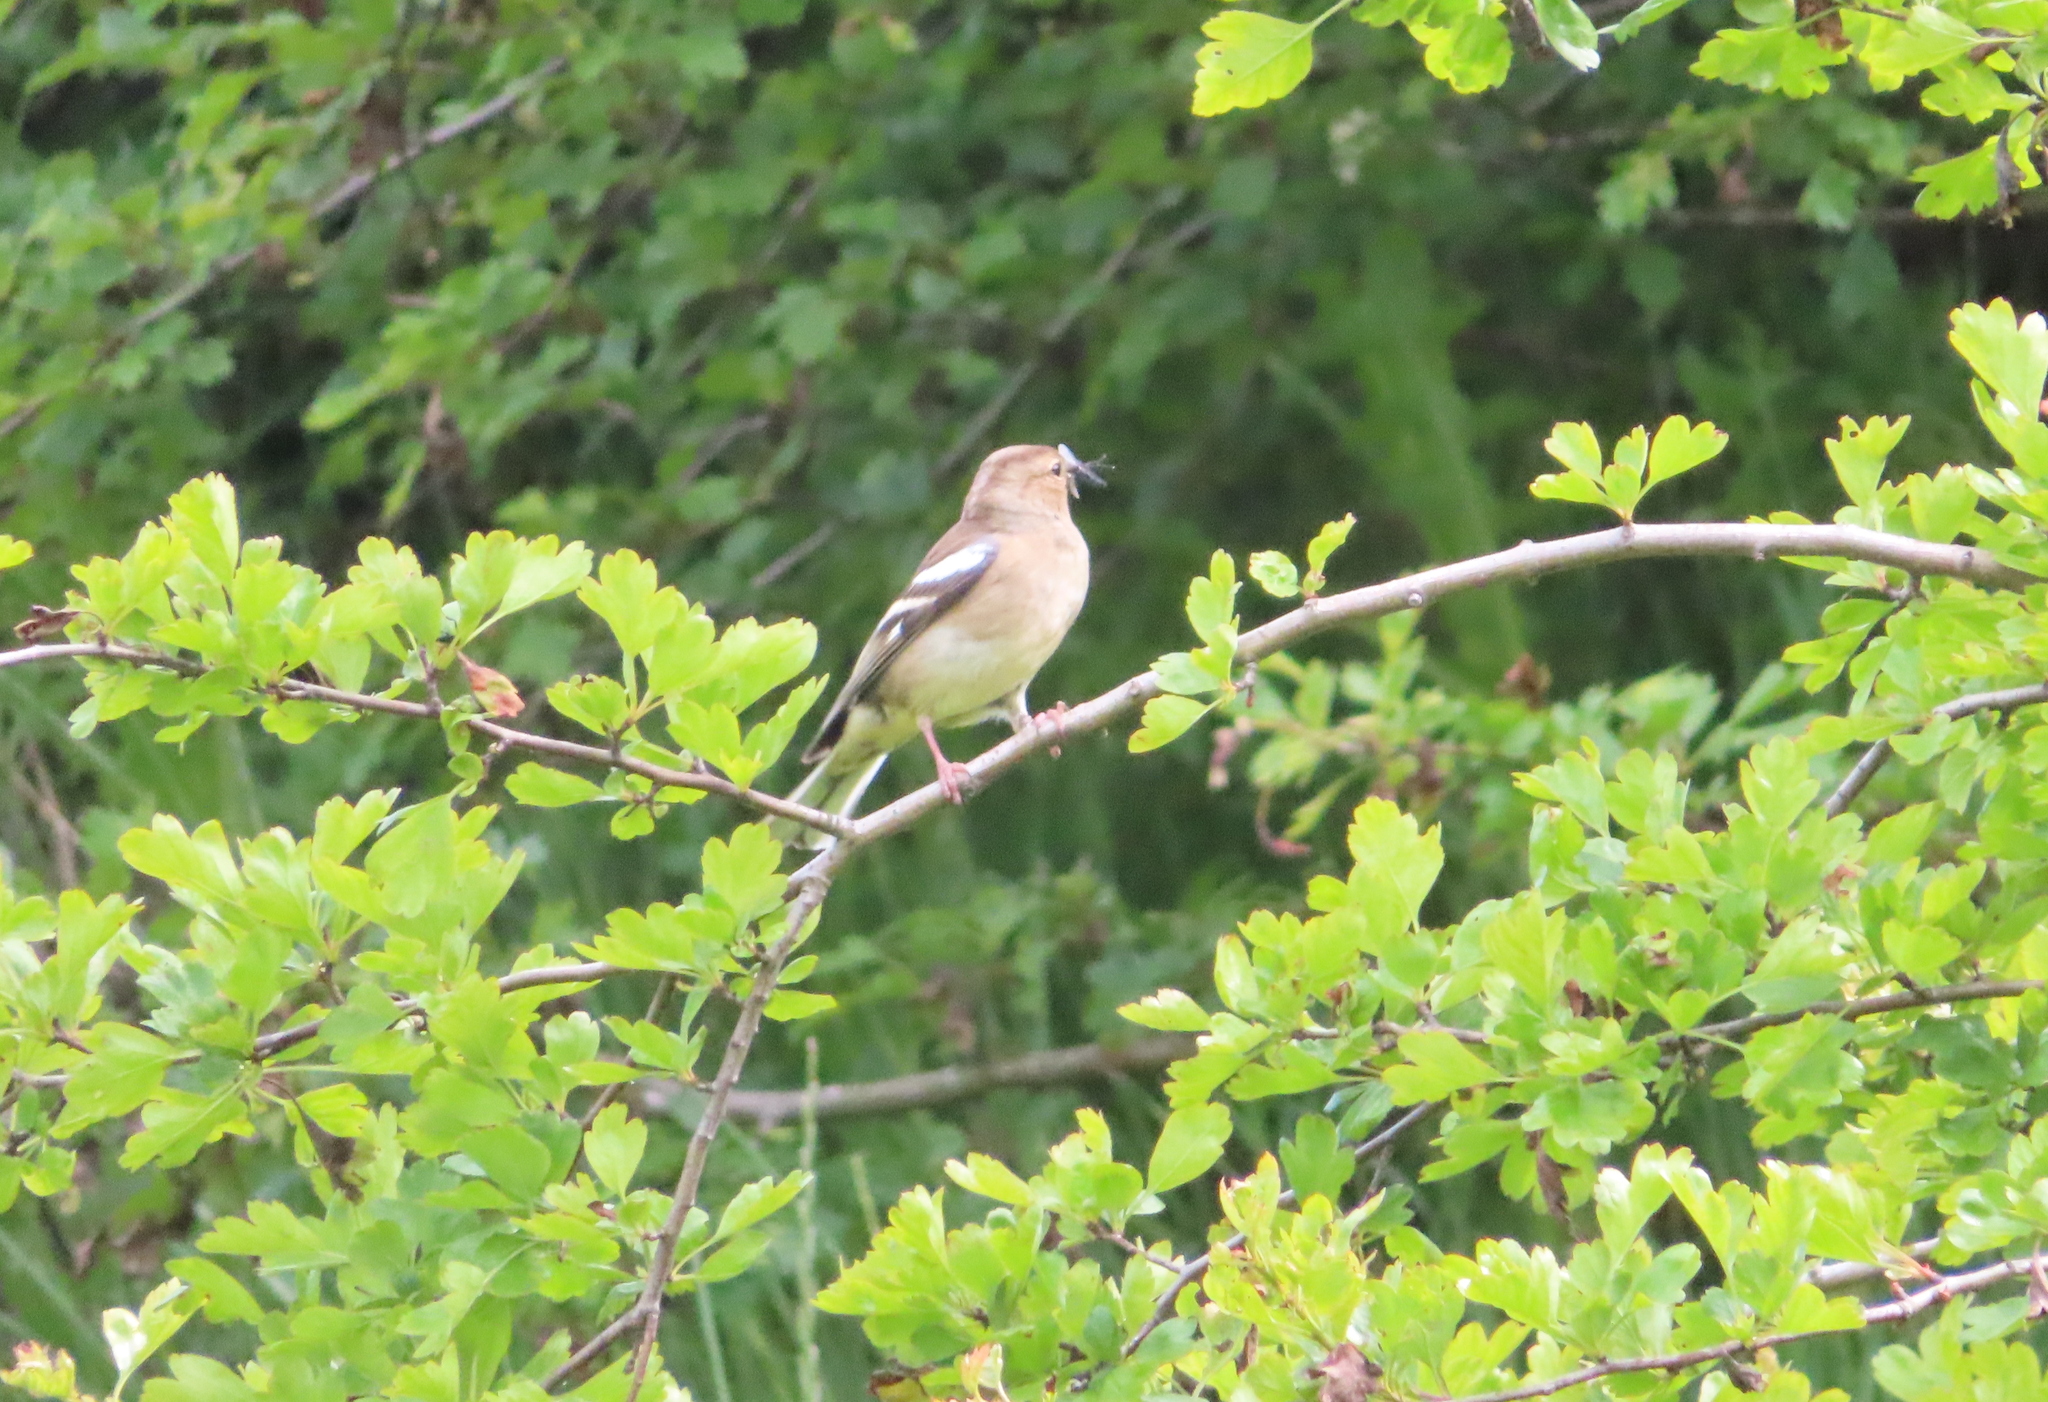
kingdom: Animalia
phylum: Chordata
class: Aves
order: Passeriformes
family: Fringillidae
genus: Fringilla
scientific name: Fringilla coelebs
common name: Common chaffinch
